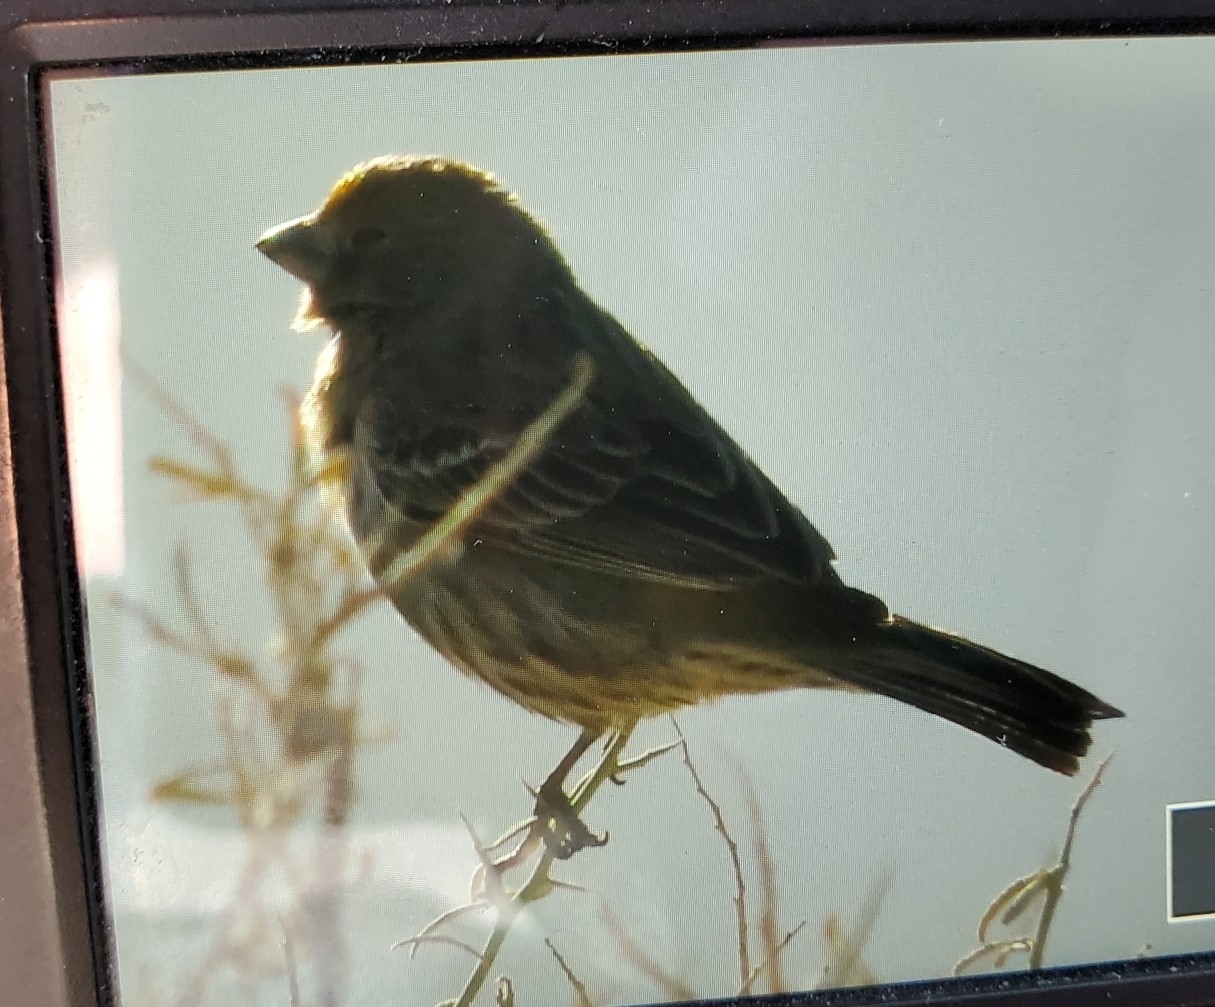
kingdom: Animalia
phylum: Chordata
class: Aves
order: Passeriformes
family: Fringillidae
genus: Haemorhous
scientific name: Haemorhous mexicanus
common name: House finch
